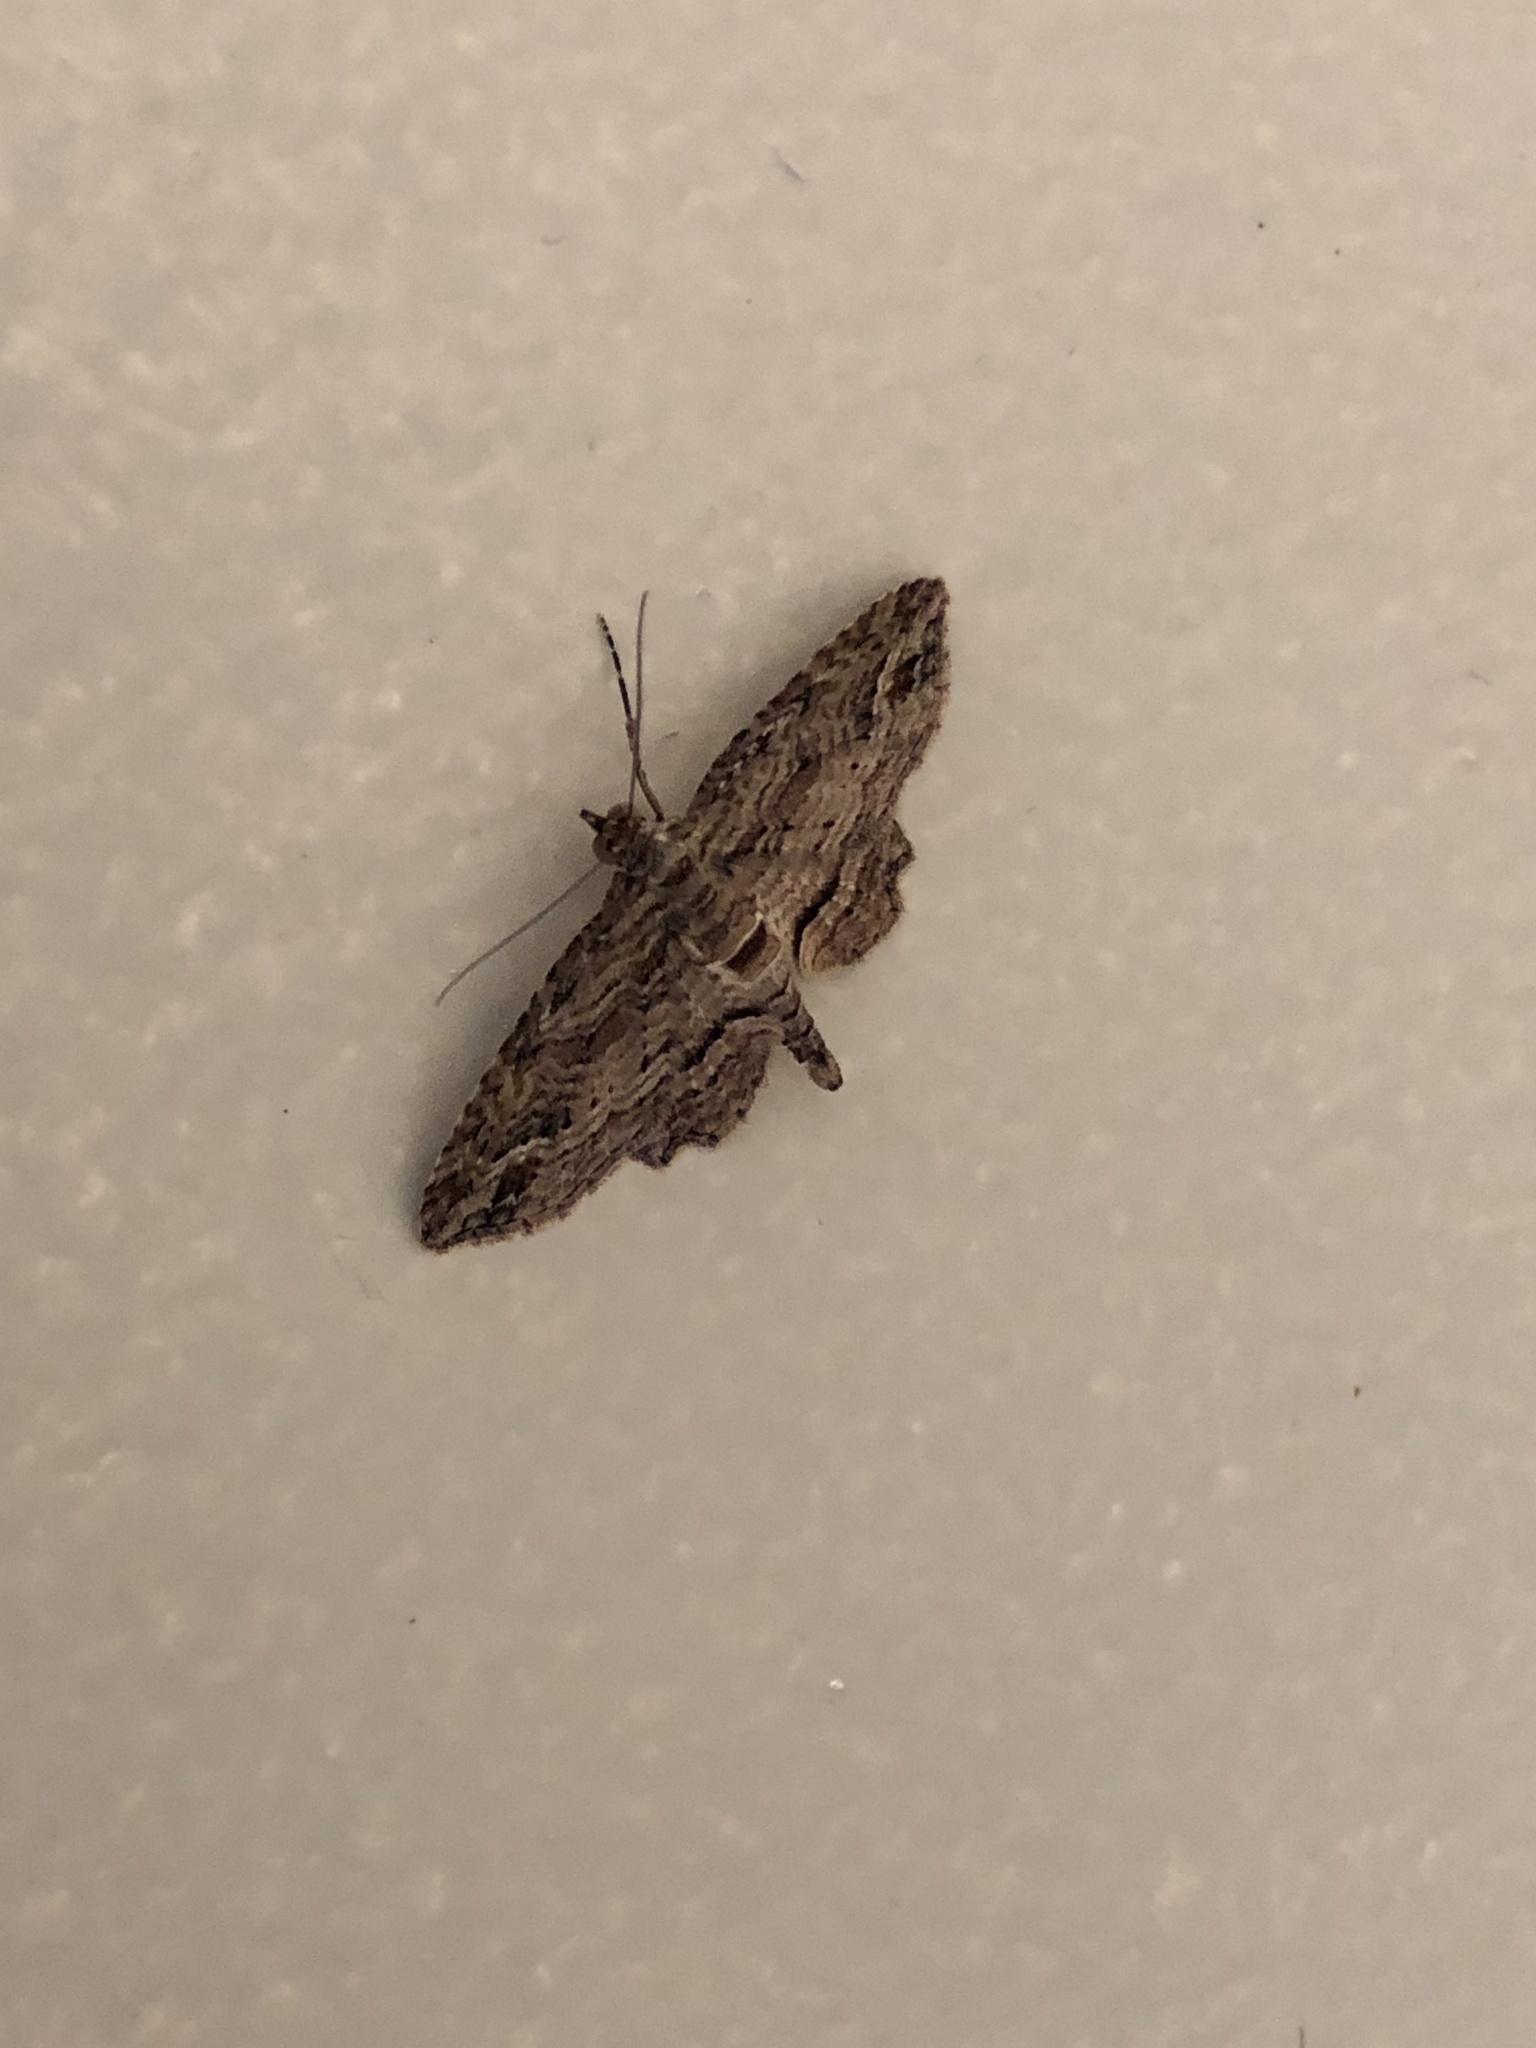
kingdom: Animalia
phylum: Arthropoda
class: Insecta
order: Lepidoptera
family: Geometridae
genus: Chloroclystis
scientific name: Chloroclystis filata
